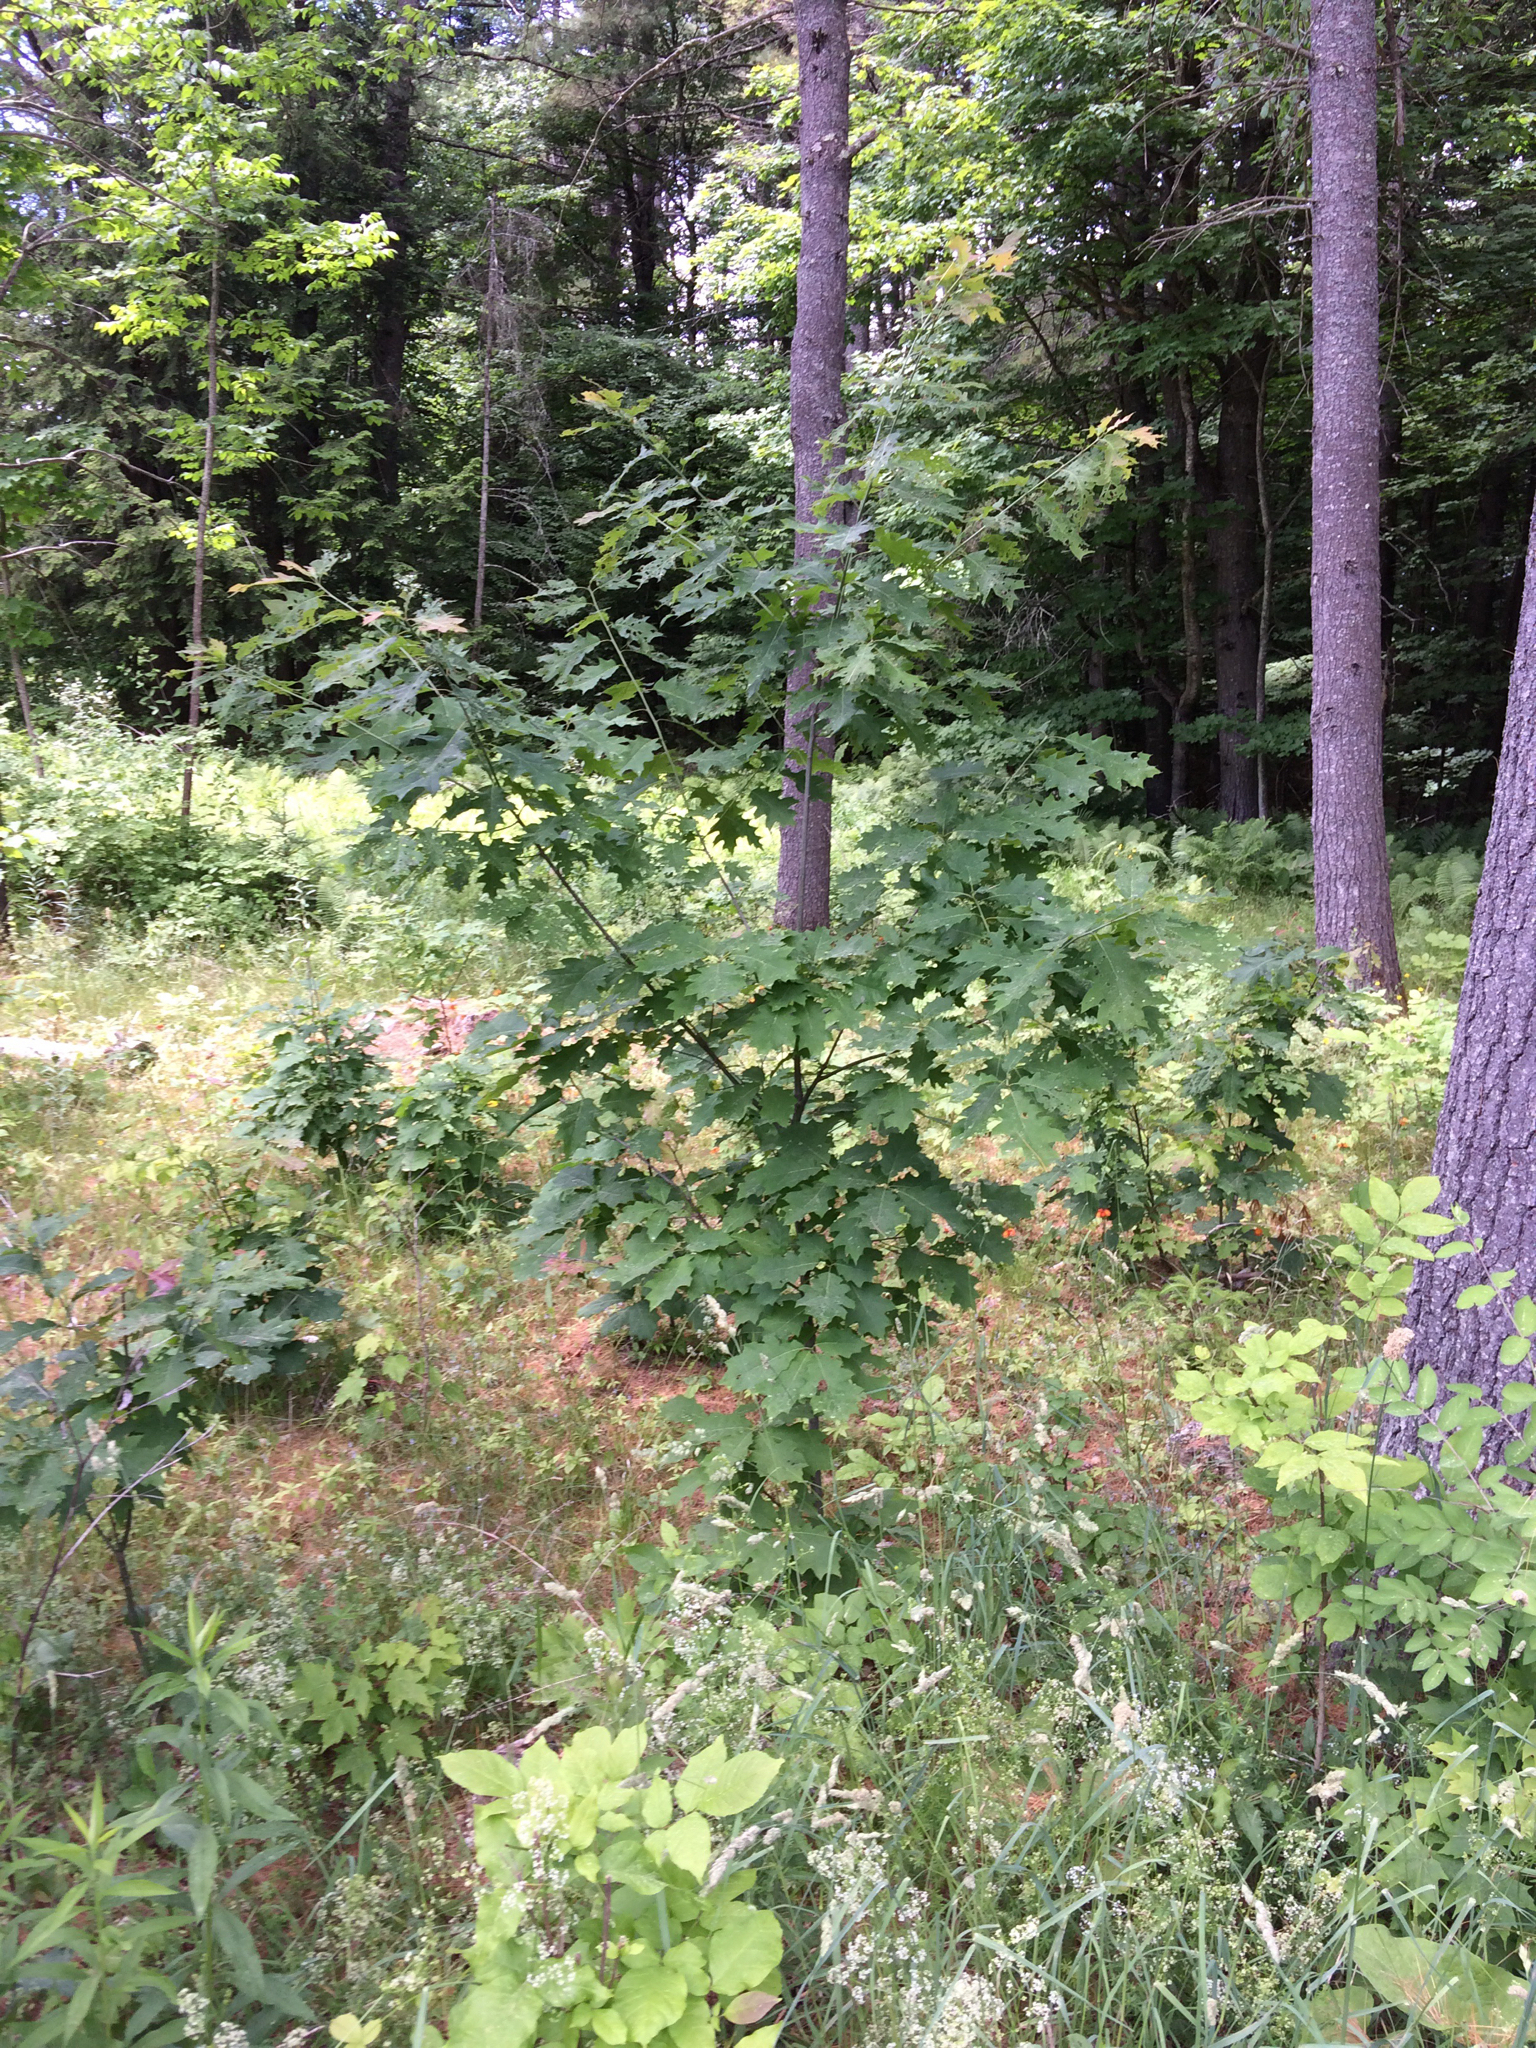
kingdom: Plantae
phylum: Tracheophyta
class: Magnoliopsida
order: Fagales
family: Fagaceae
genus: Quercus
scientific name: Quercus rubra
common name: Red oak
